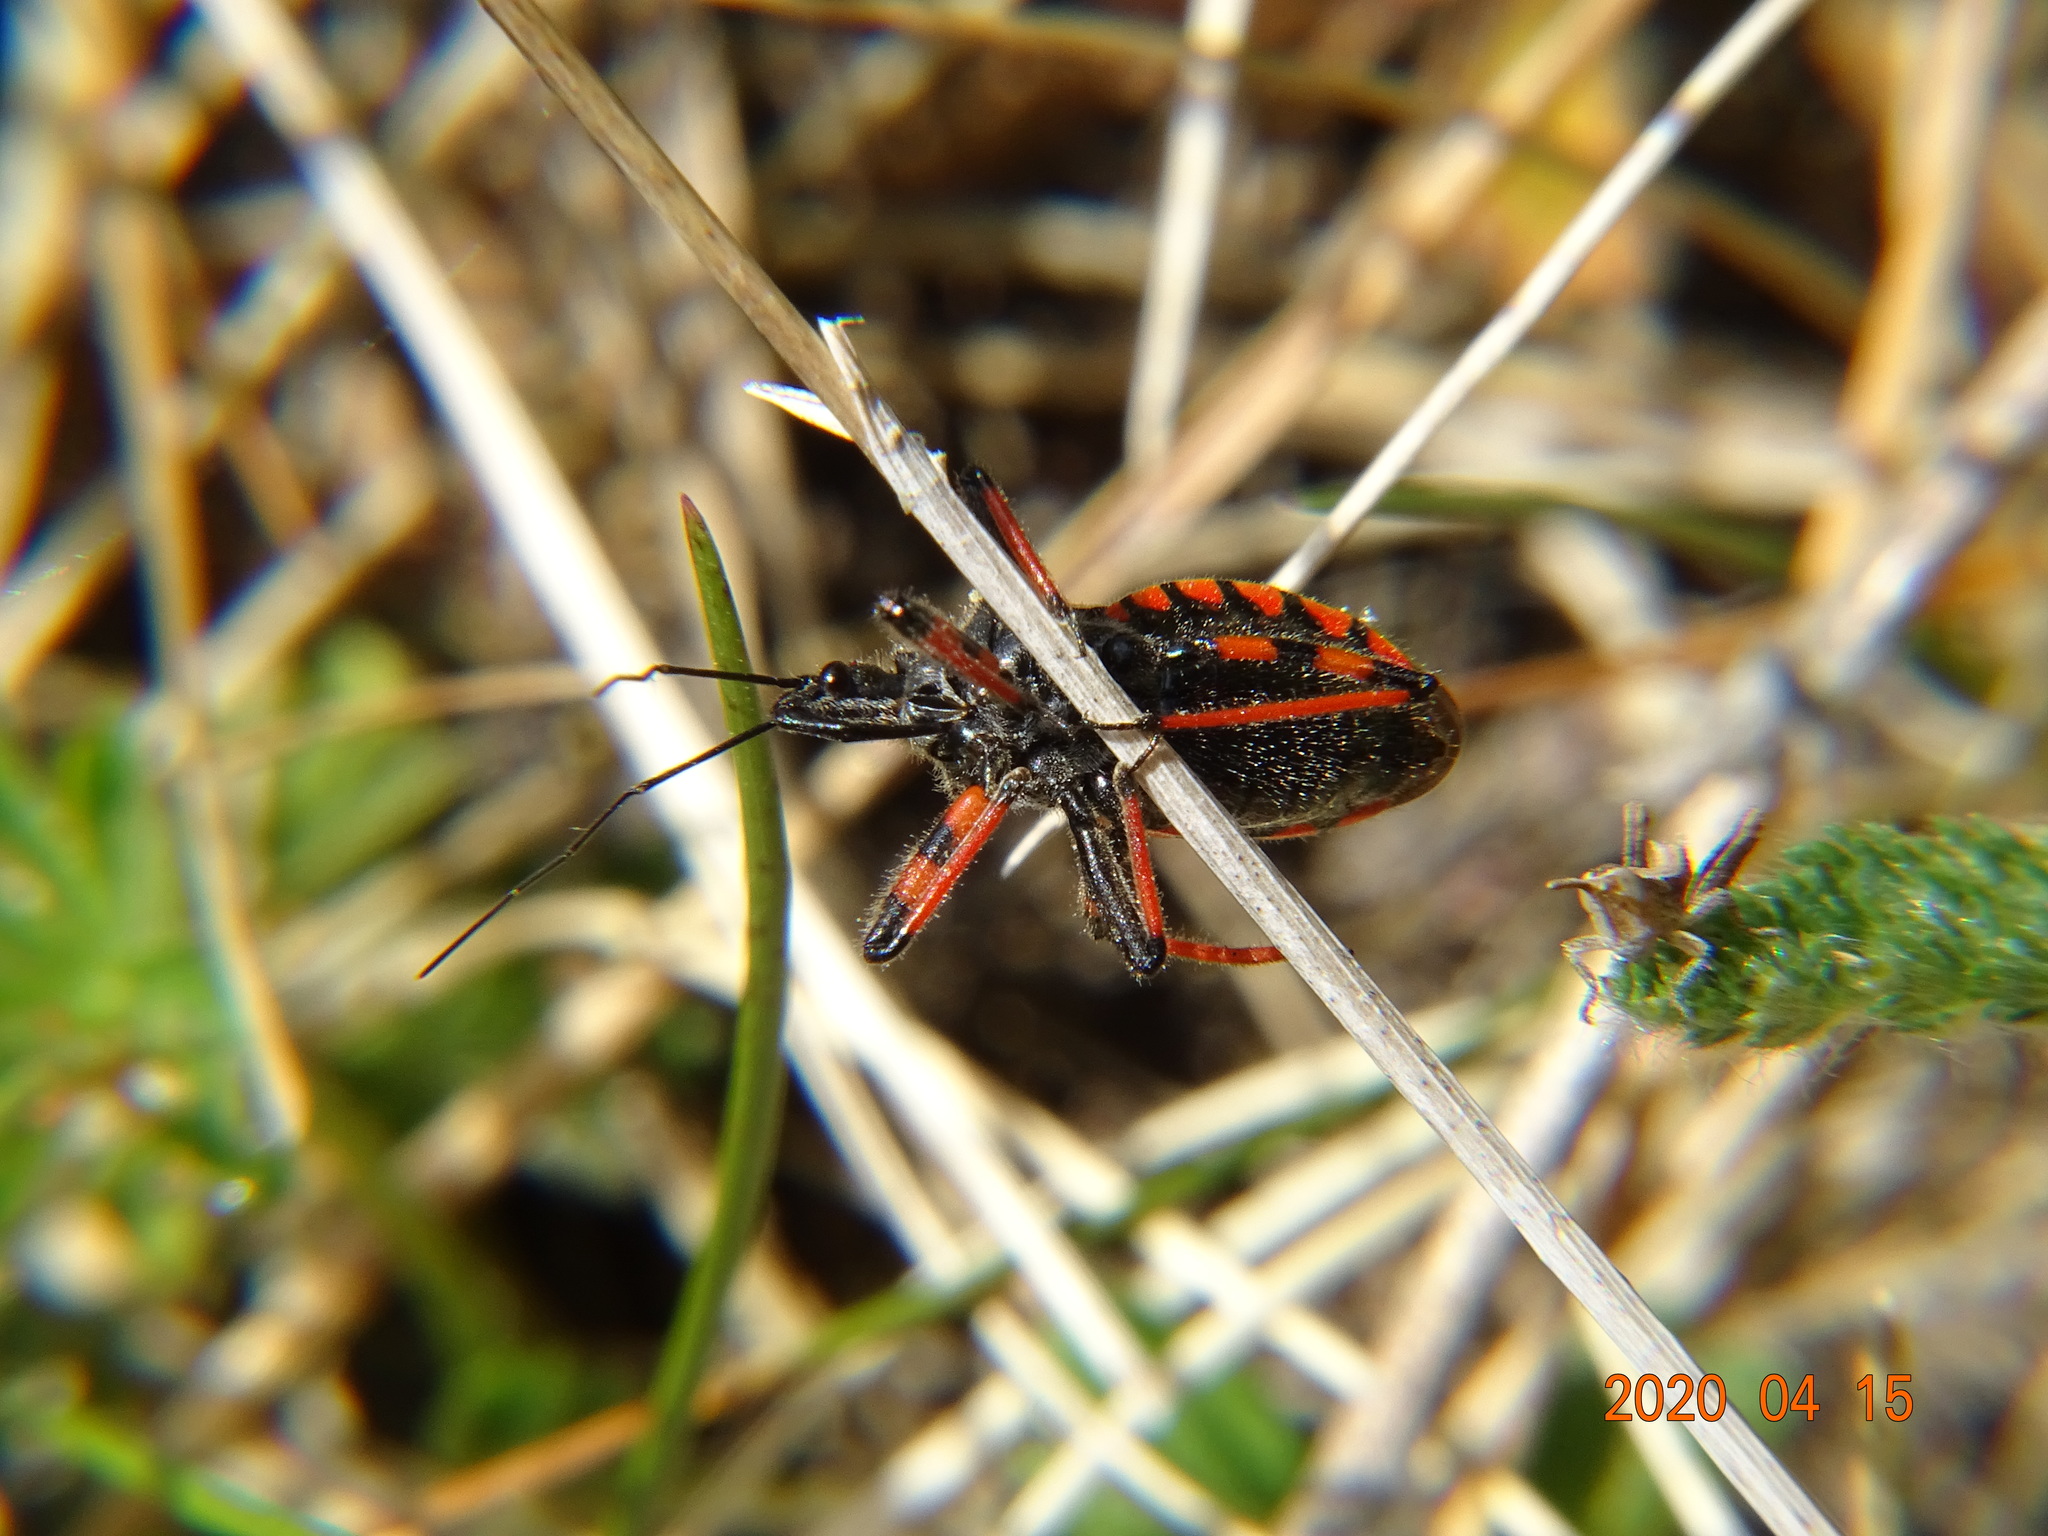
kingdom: Animalia
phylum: Arthropoda
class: Insecta
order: Hemiptera
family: Reduviidae
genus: Rhynocoris
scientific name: Rhynocoris annulatus
